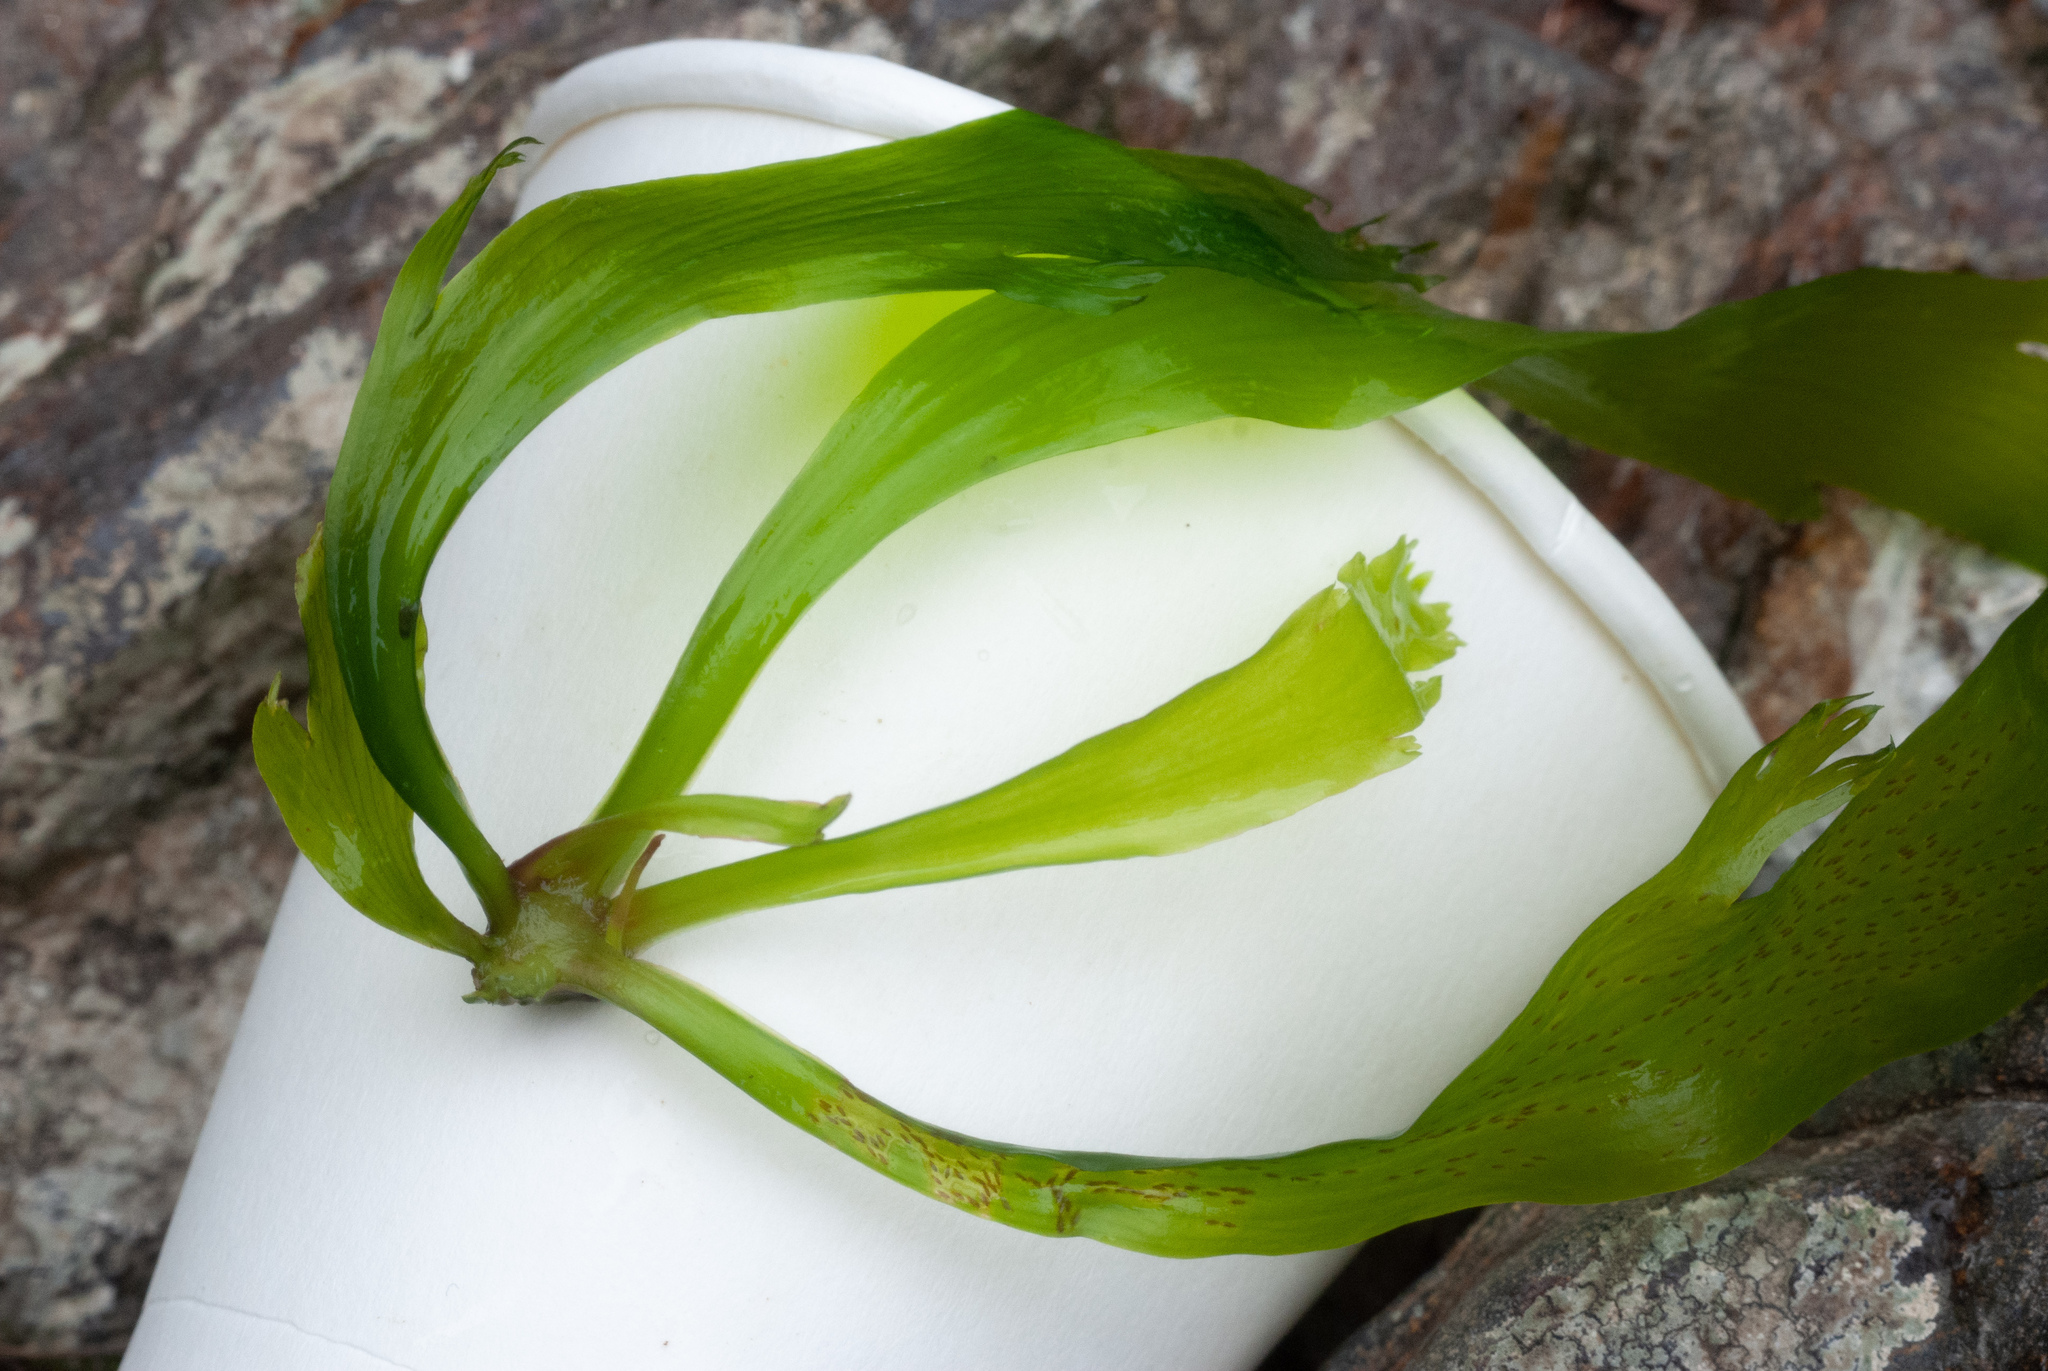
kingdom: Plantae
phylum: Tracheophyta
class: Magnoliopsida
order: Malpighiales
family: Podostemaceae
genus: Marathrum
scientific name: Marathrum utile
